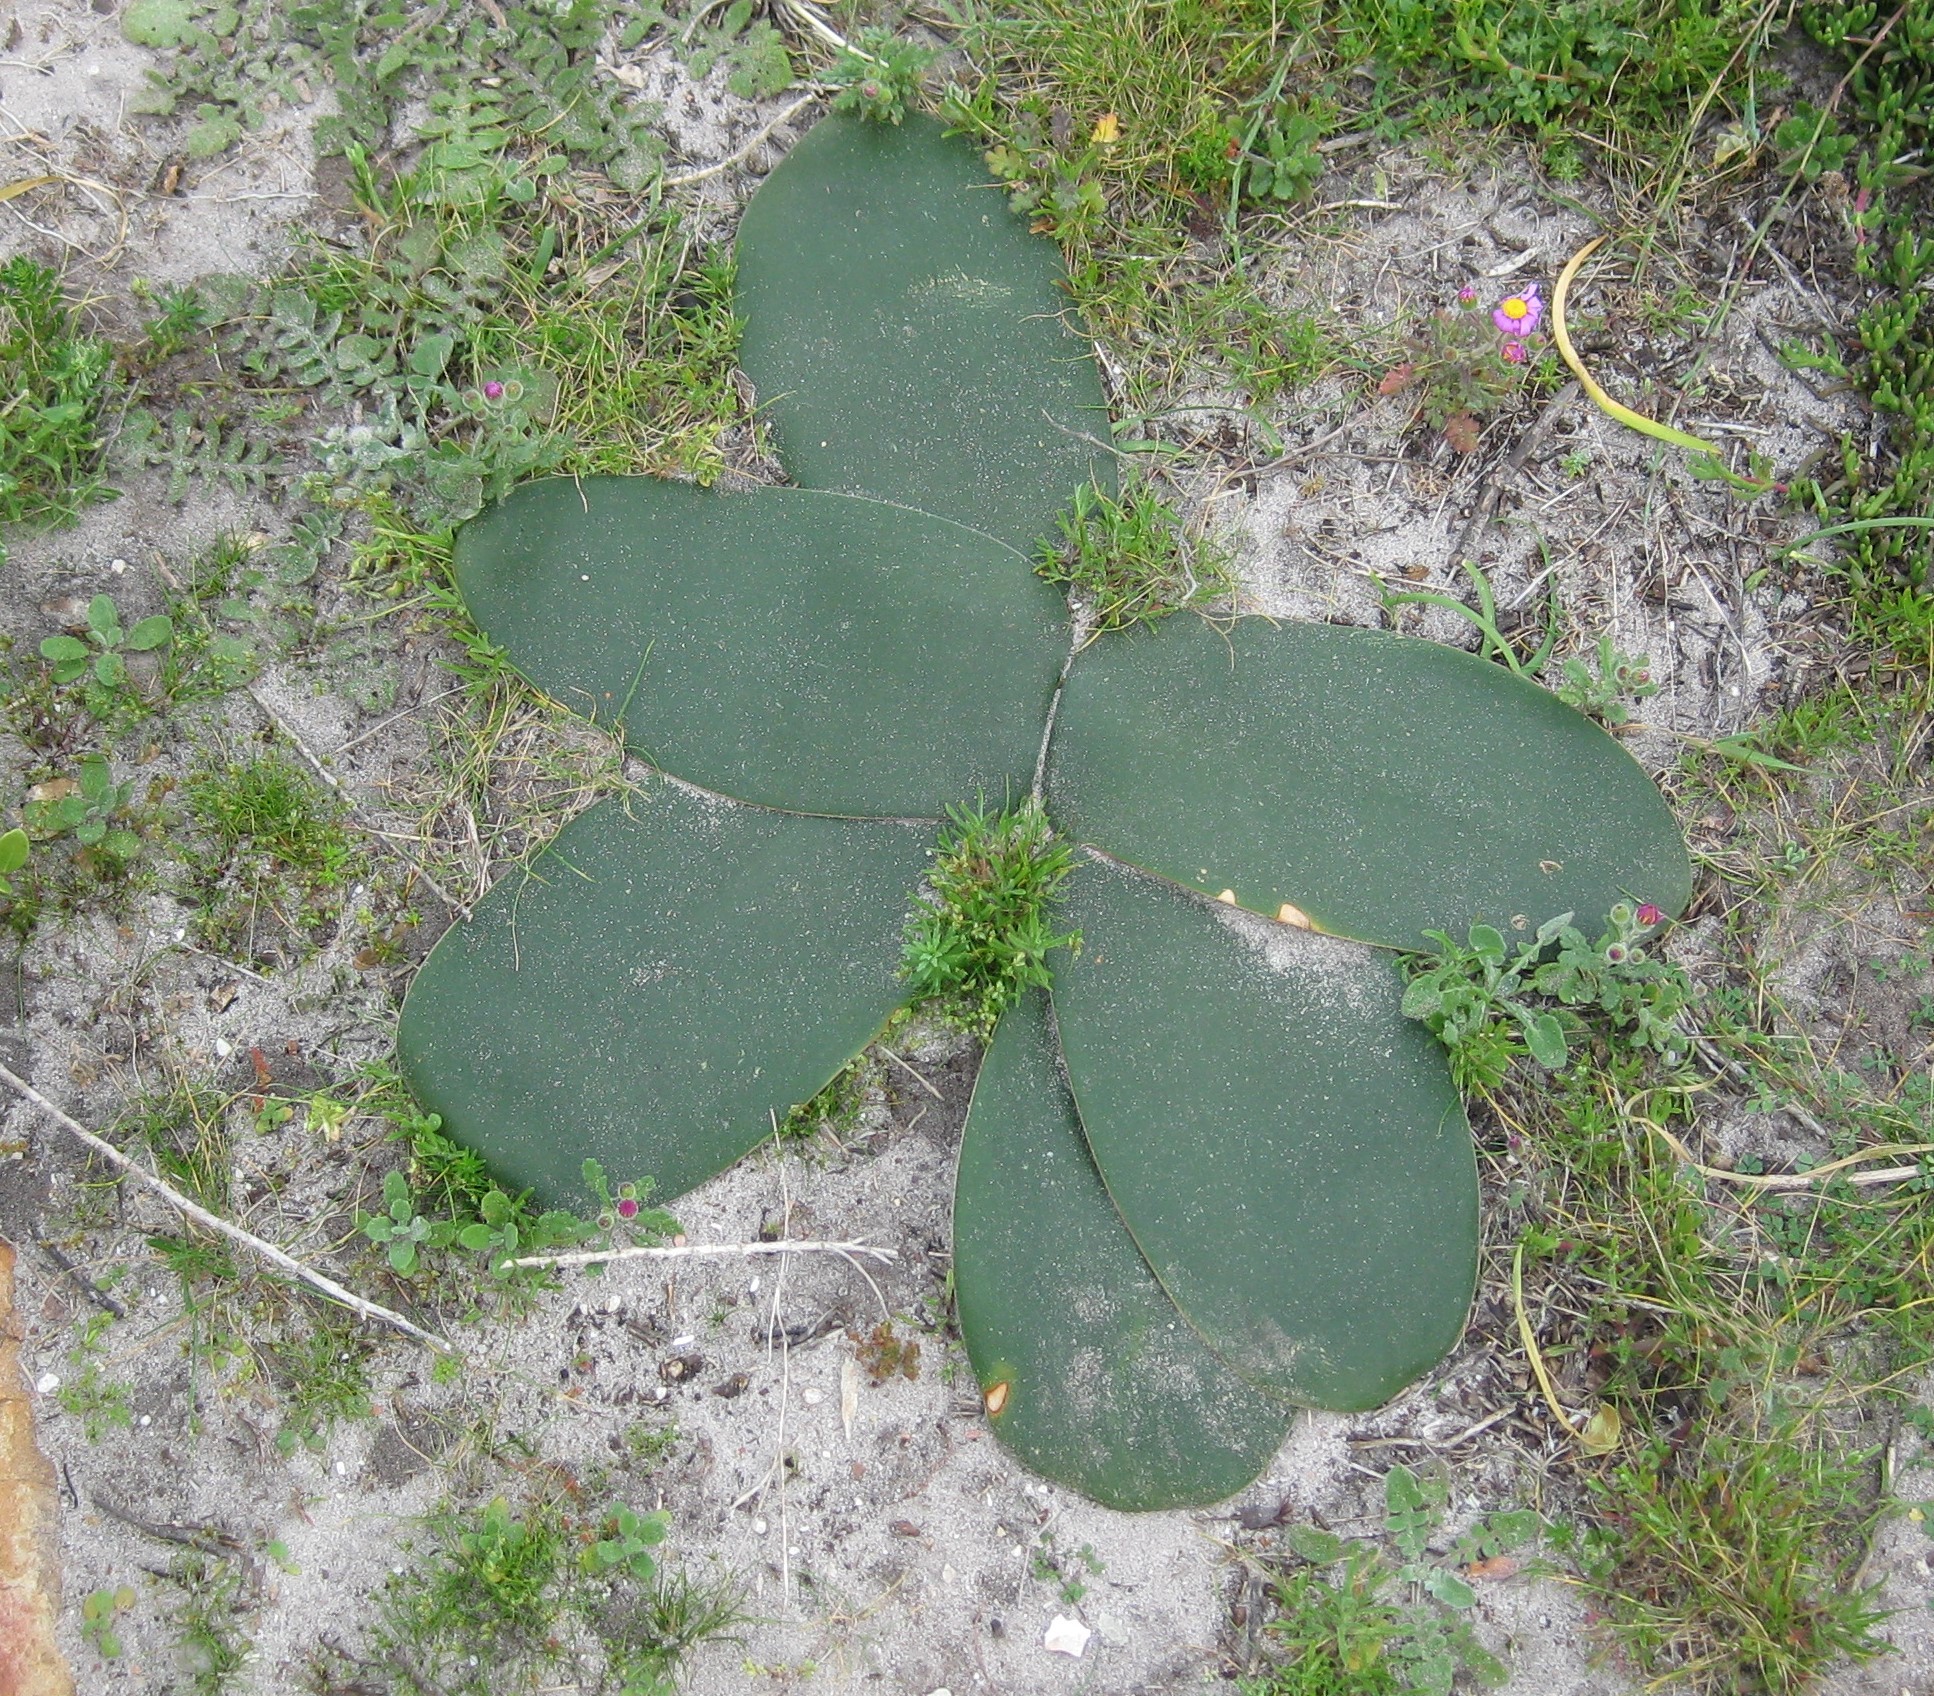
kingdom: Plantae
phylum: Tracheophyta
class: Liliopsida
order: Asparagales
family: Amaryllidaceae
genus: Brunsvigia
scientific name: Brunsvigia orientalis
